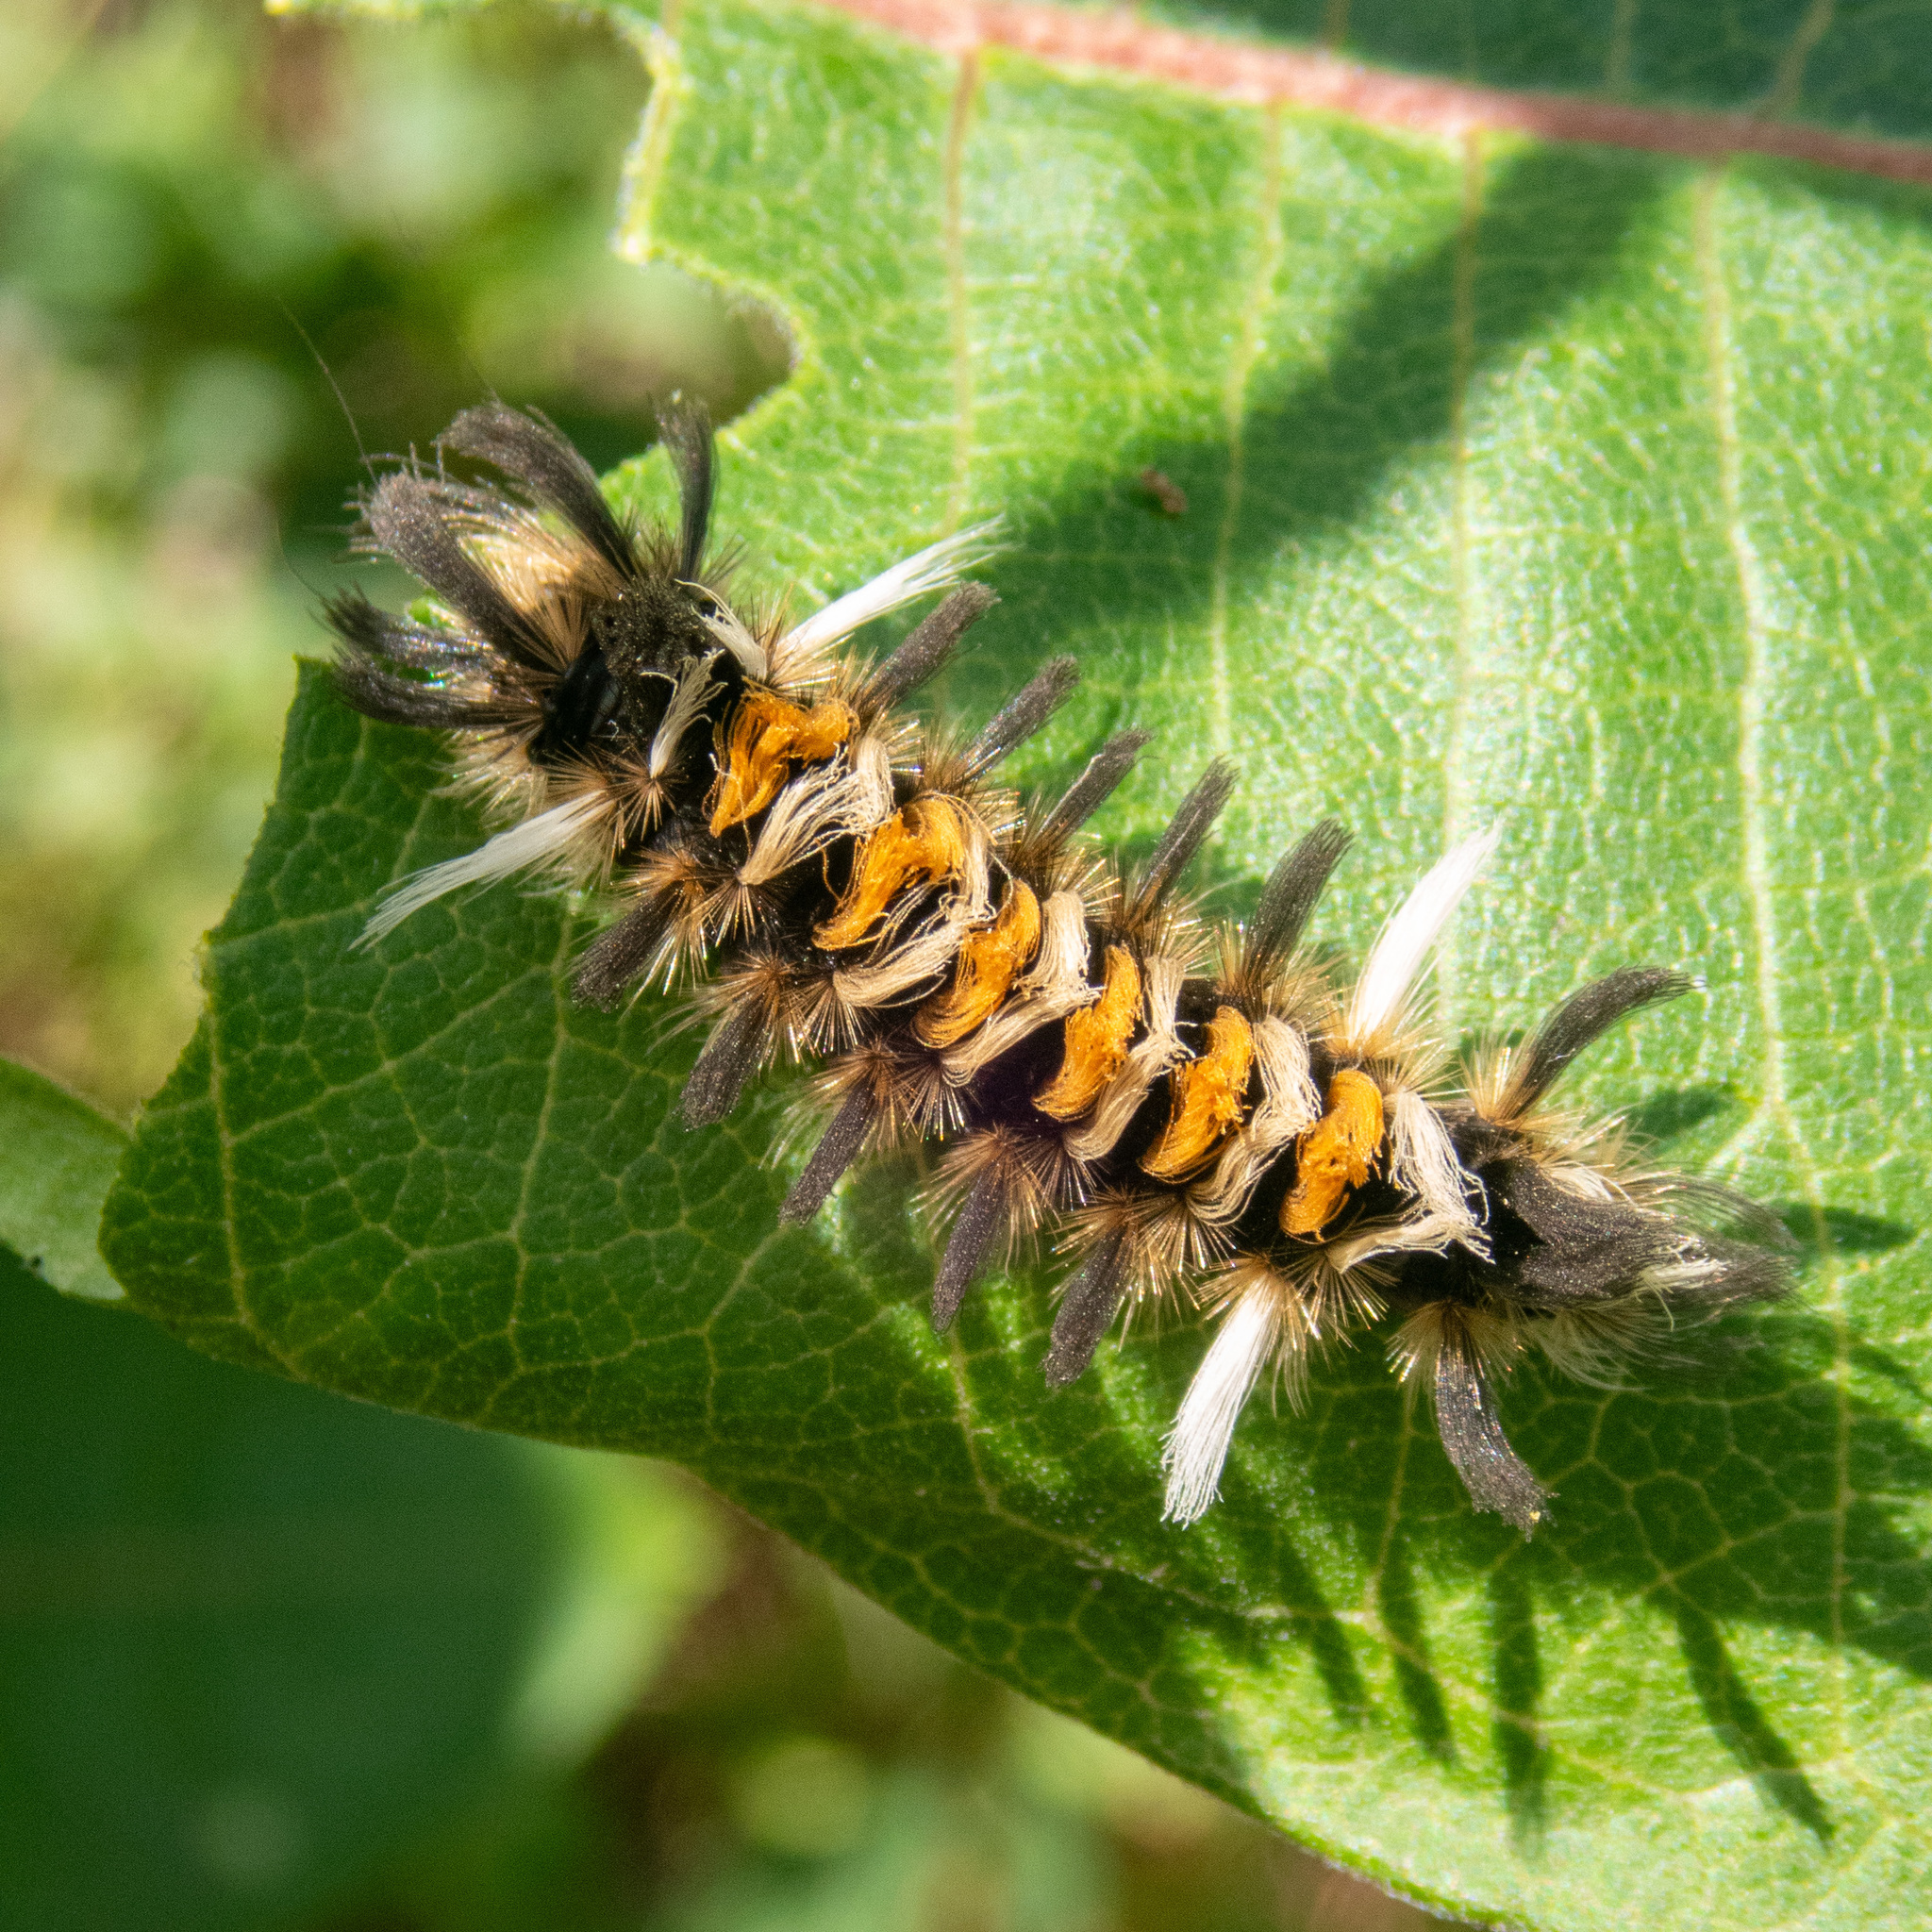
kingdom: Animalia
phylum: Arthropoda
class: Insecta
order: Lepidoptera
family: Erebidae
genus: Euchaetes
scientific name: Euchaetes egle
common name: Milkweed tussock moth
